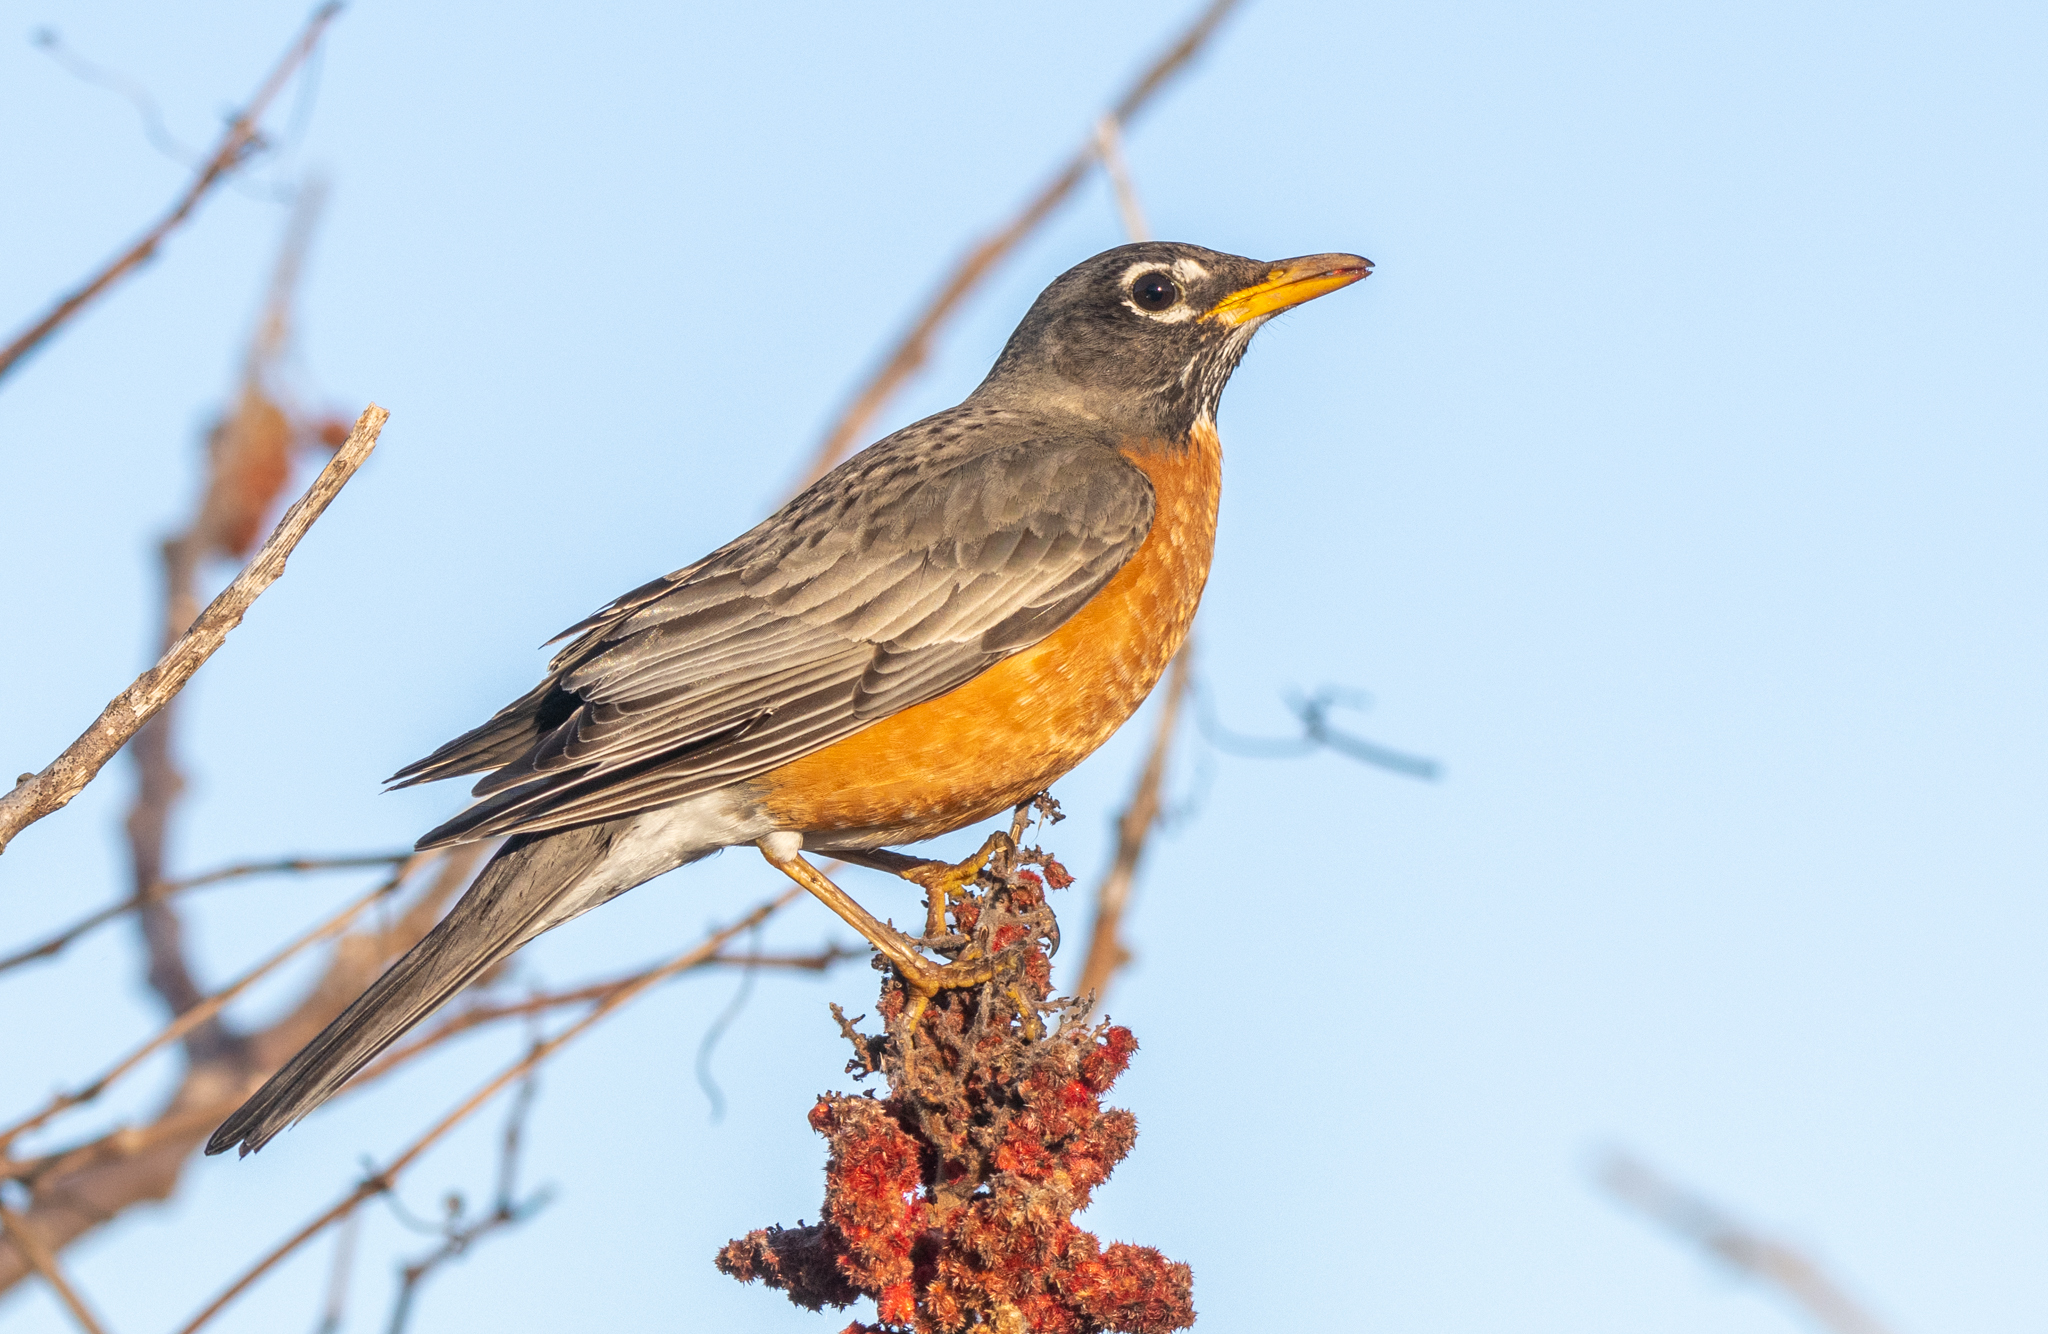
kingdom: Animalia
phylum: Chordata
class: Aves
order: Passeriformes
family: Turdidae
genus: Turdus
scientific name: Turdus migratorius
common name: American robin
